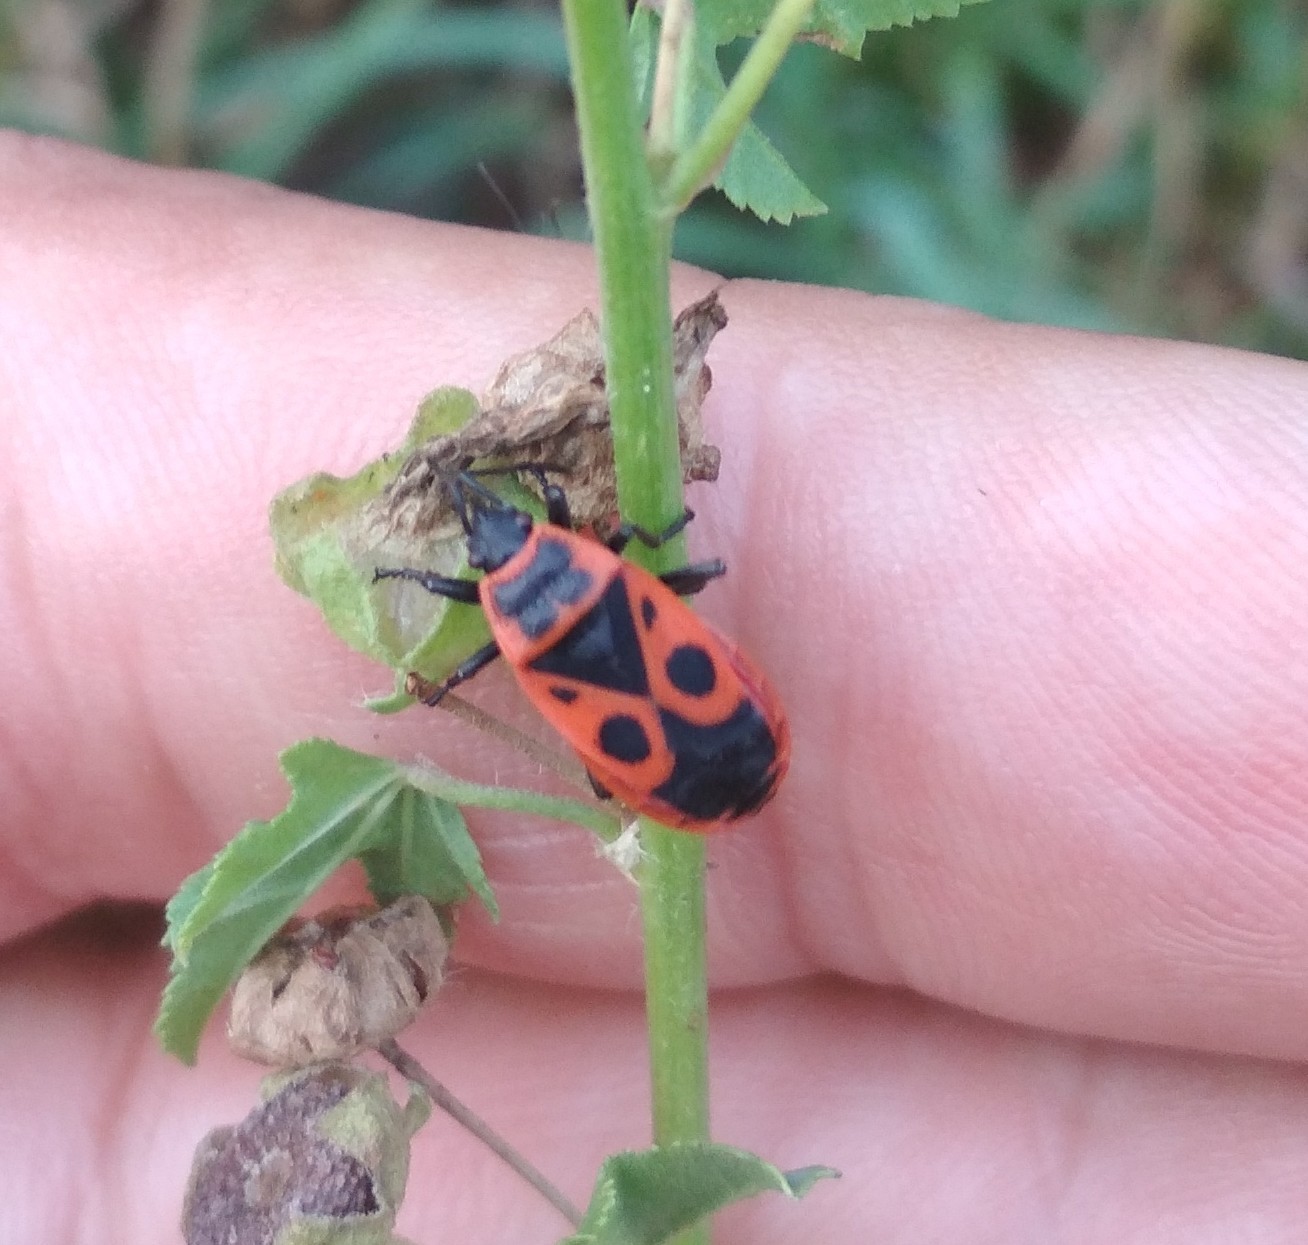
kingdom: Animalia
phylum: Arthropoda
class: Insecta
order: Hemiptera
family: Pyrrhocoridae
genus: Pyrrhocoris
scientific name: Pyrrhocoris apterus
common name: Firebug
